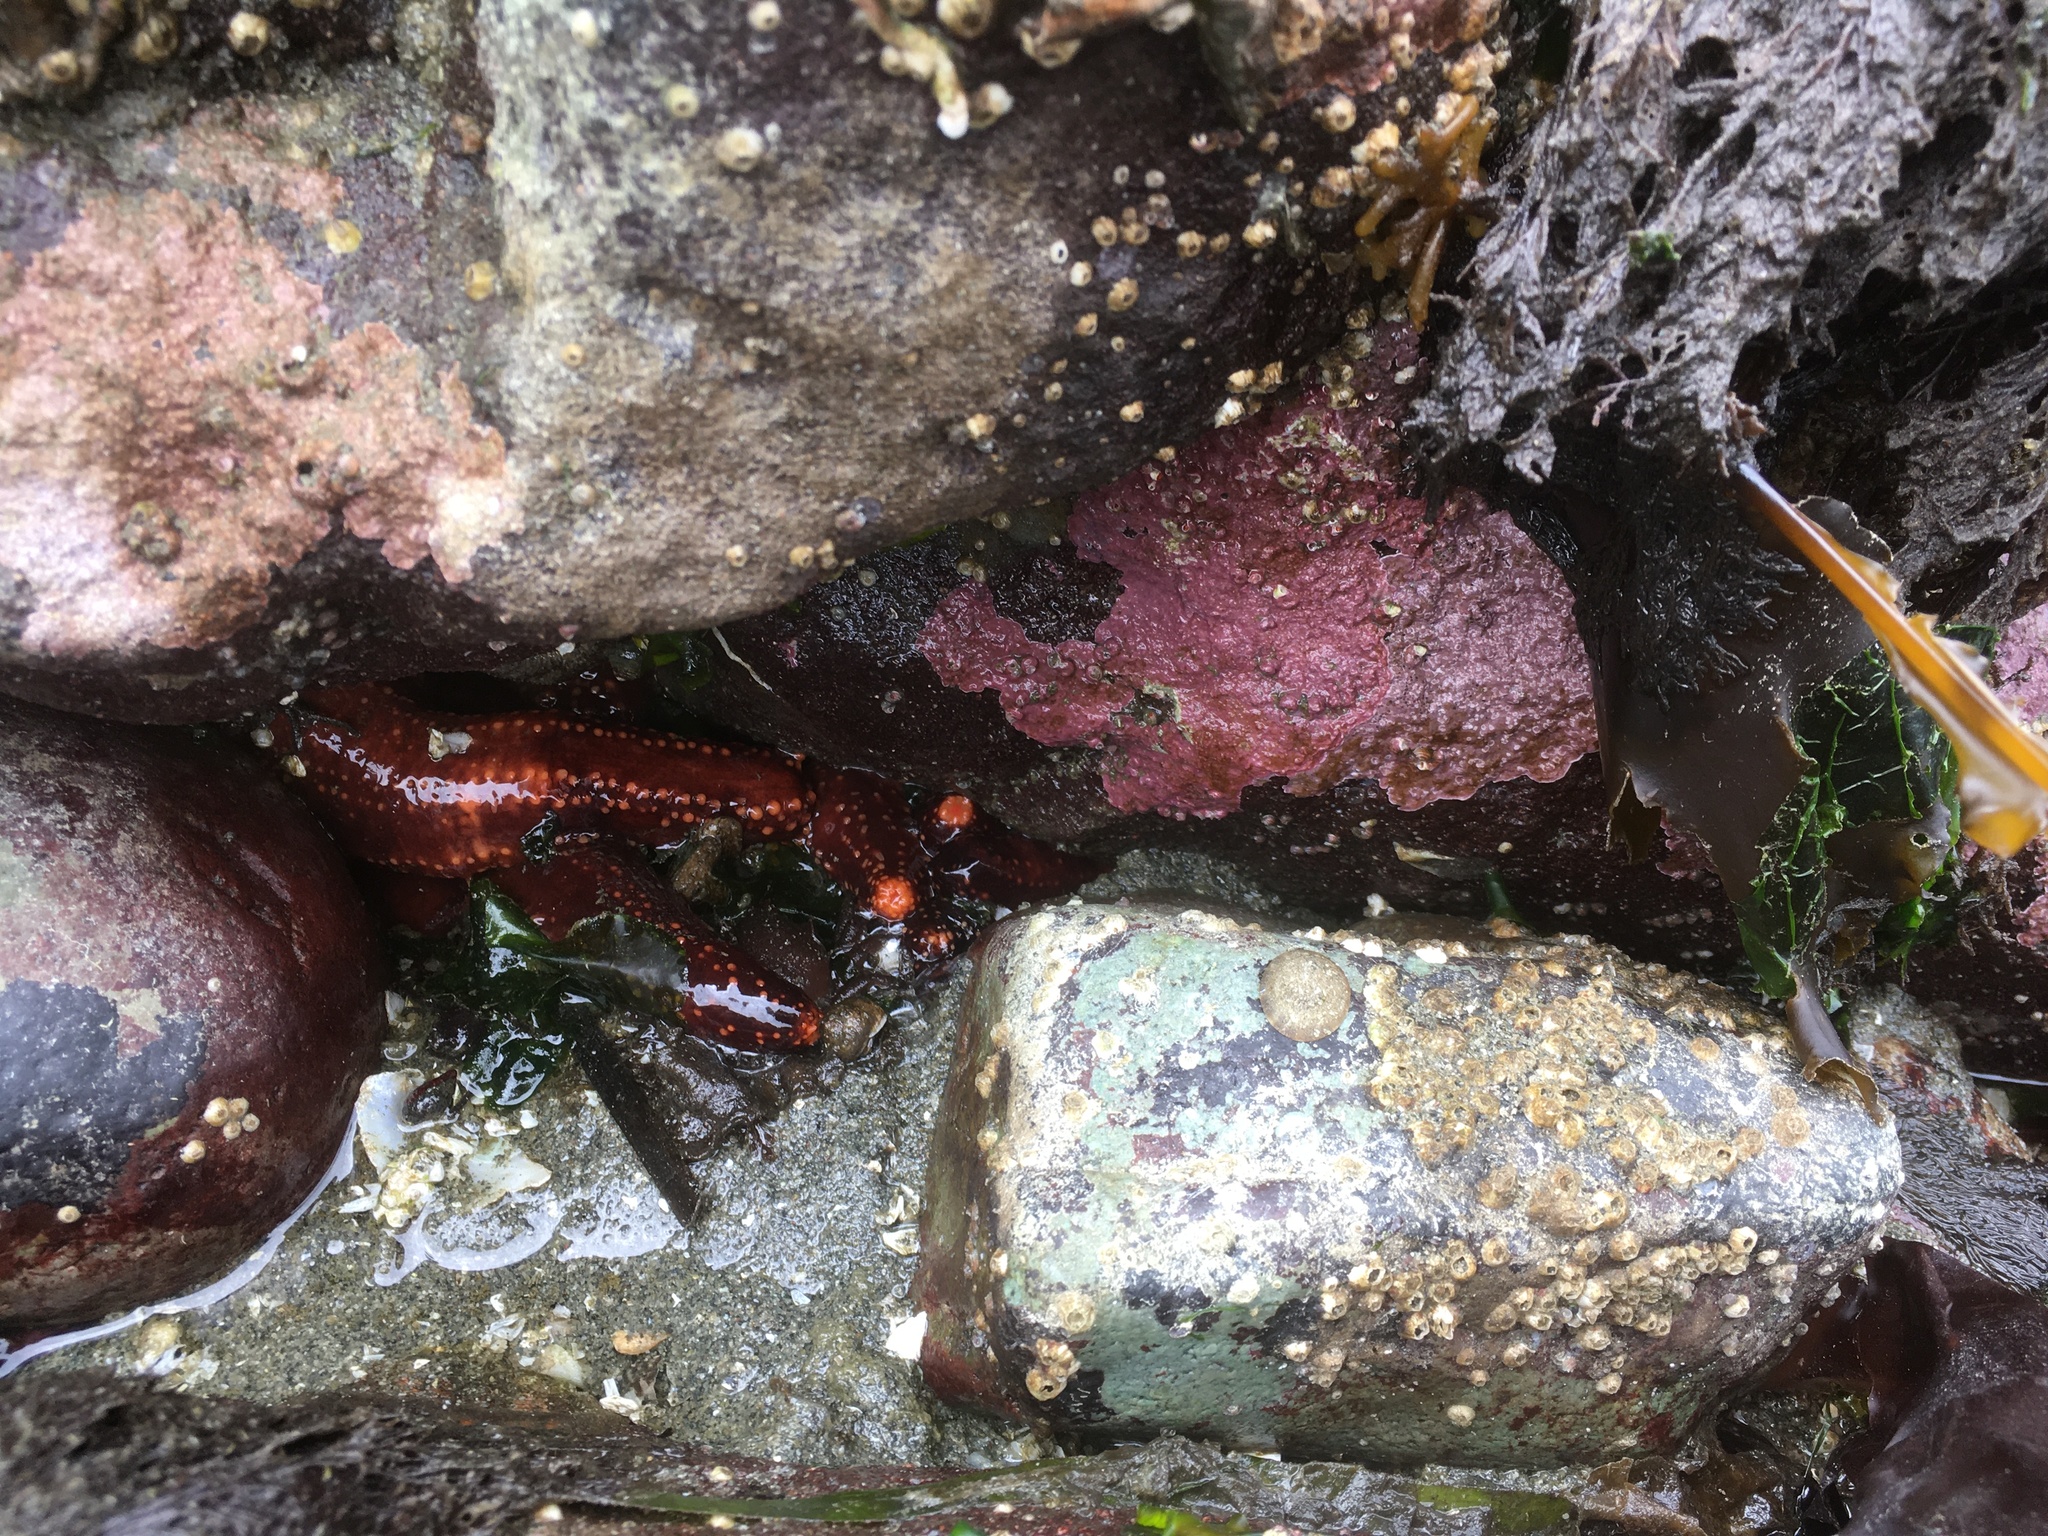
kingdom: Animalia
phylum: Echinodermata
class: Holothuroidea
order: Dendrochirotida
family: Cucumariidae
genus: Cucumaria
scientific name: Cucumaria miniata
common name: Orange sea cucumber
